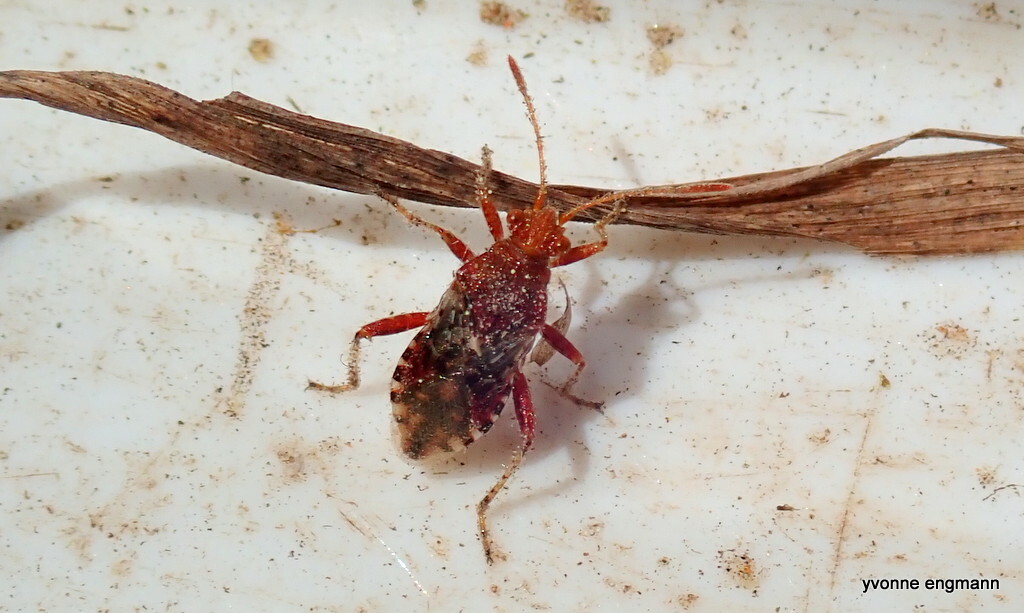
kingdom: Animalia
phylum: Arthropoda
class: Insecta
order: Hemiptera
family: Rhopalidae
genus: Rhopalus
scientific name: Rhopalus subrufus
